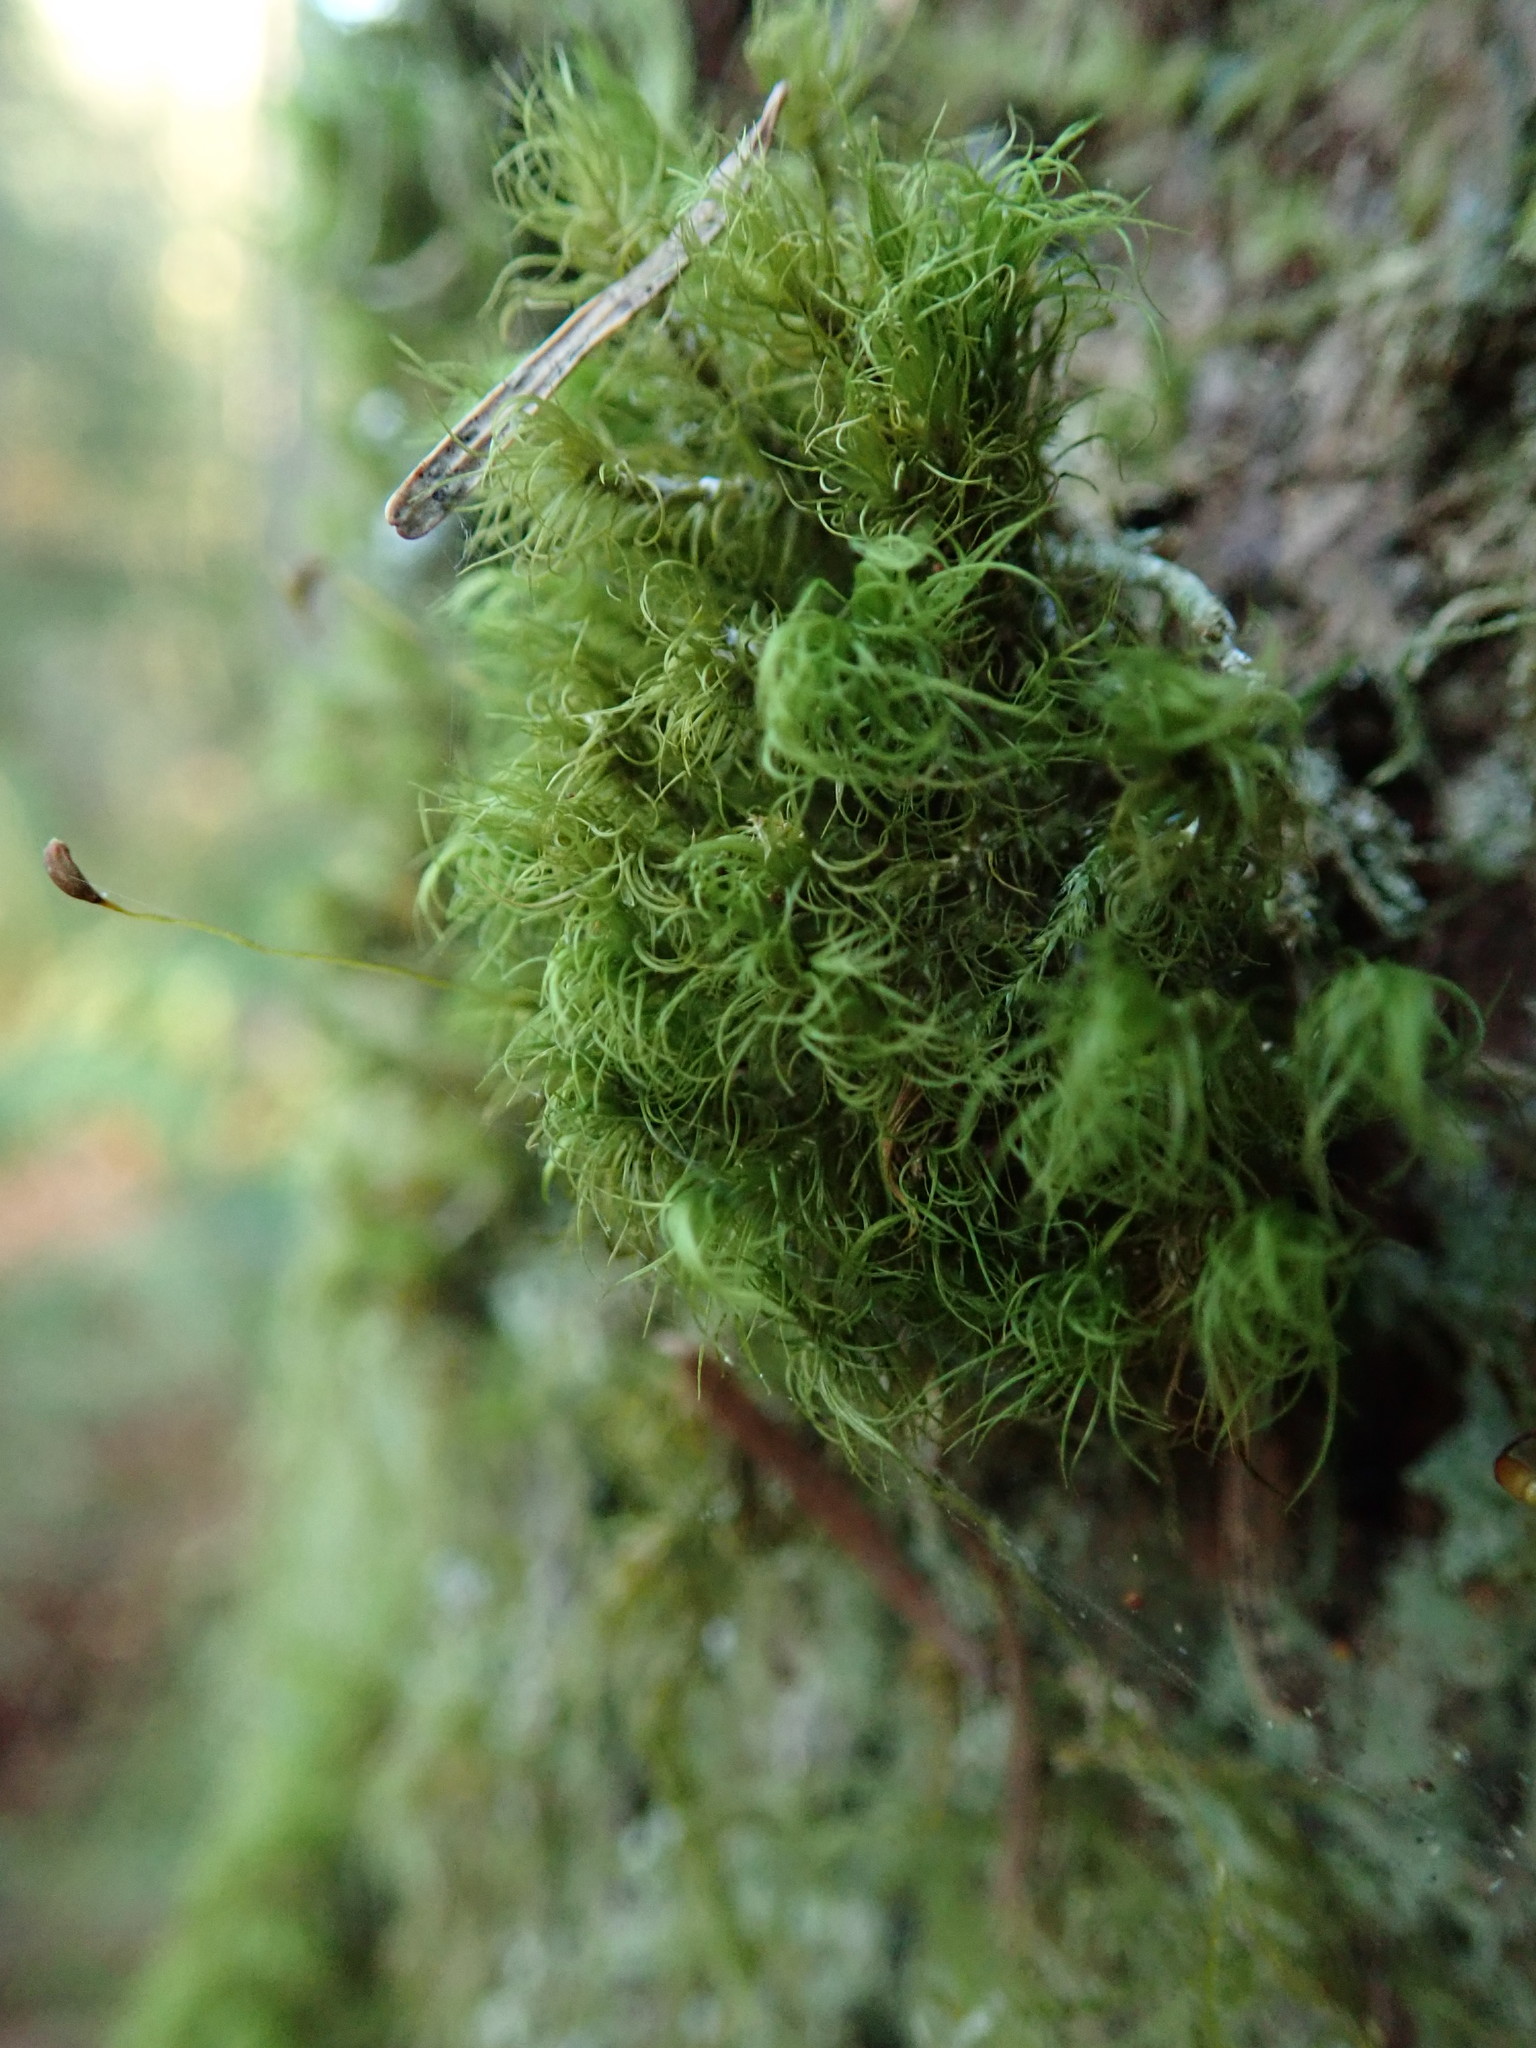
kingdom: Plantae
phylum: Bryophyta
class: Bryopsida
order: Dicranales
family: Dicranaceae
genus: Dicranum
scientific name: Dicranum fuscescens
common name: Curly heron's-bill moss
